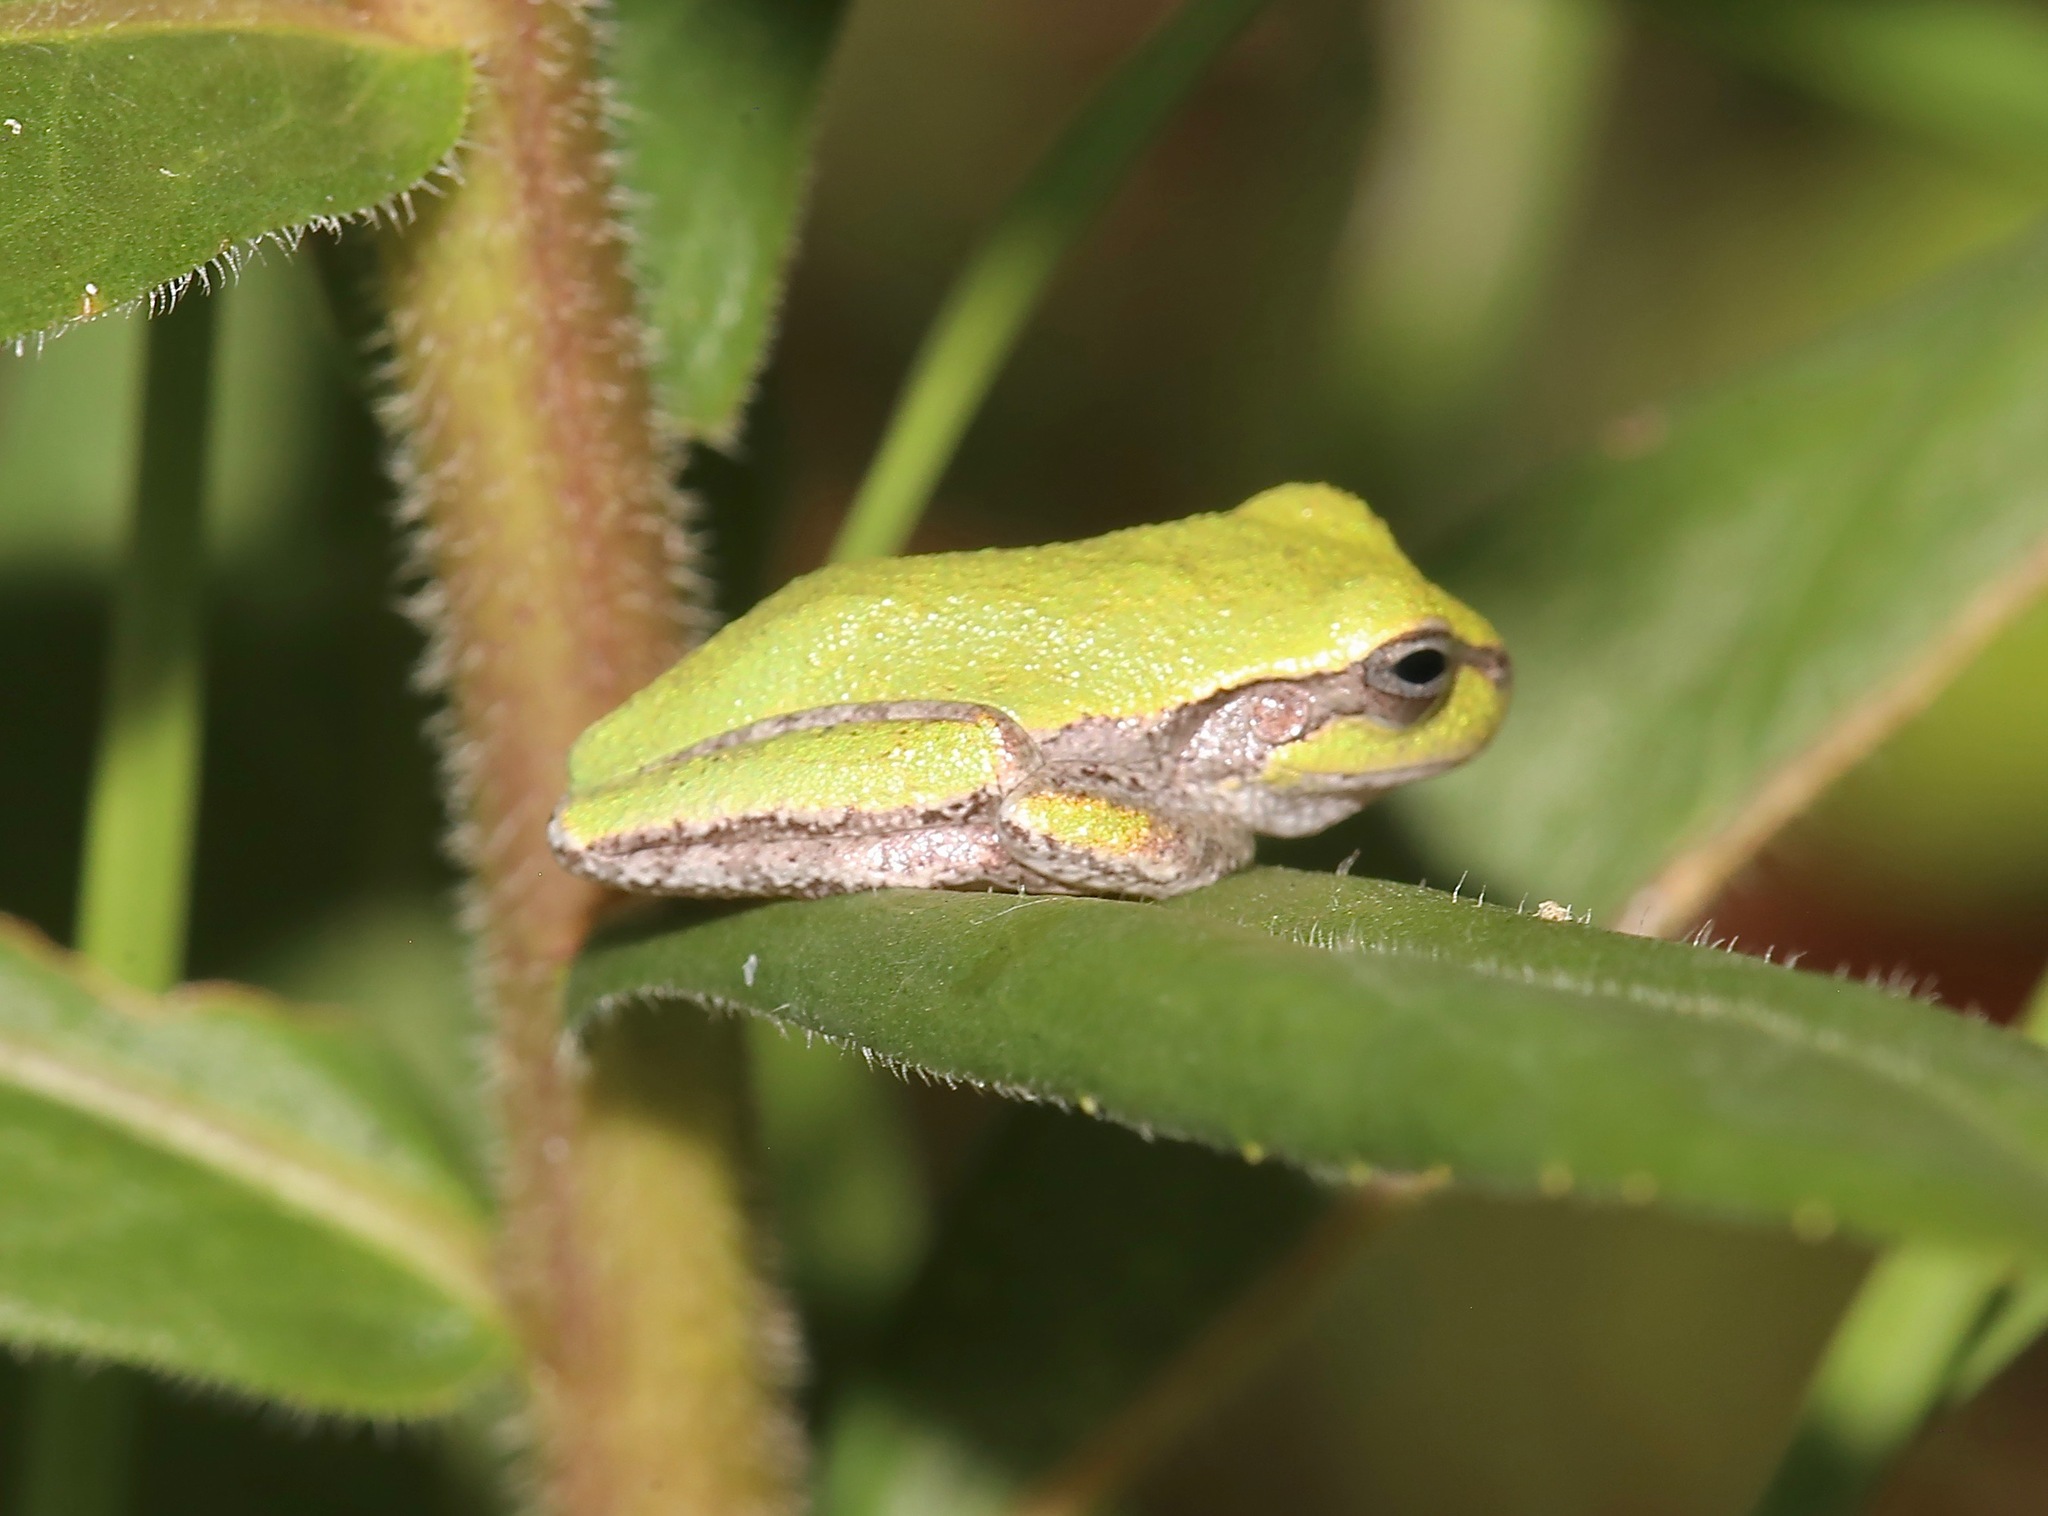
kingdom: Animalia
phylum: Chordata
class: Amphibia
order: Anura
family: Hylidae
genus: Hyla
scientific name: Hyla femoralis
